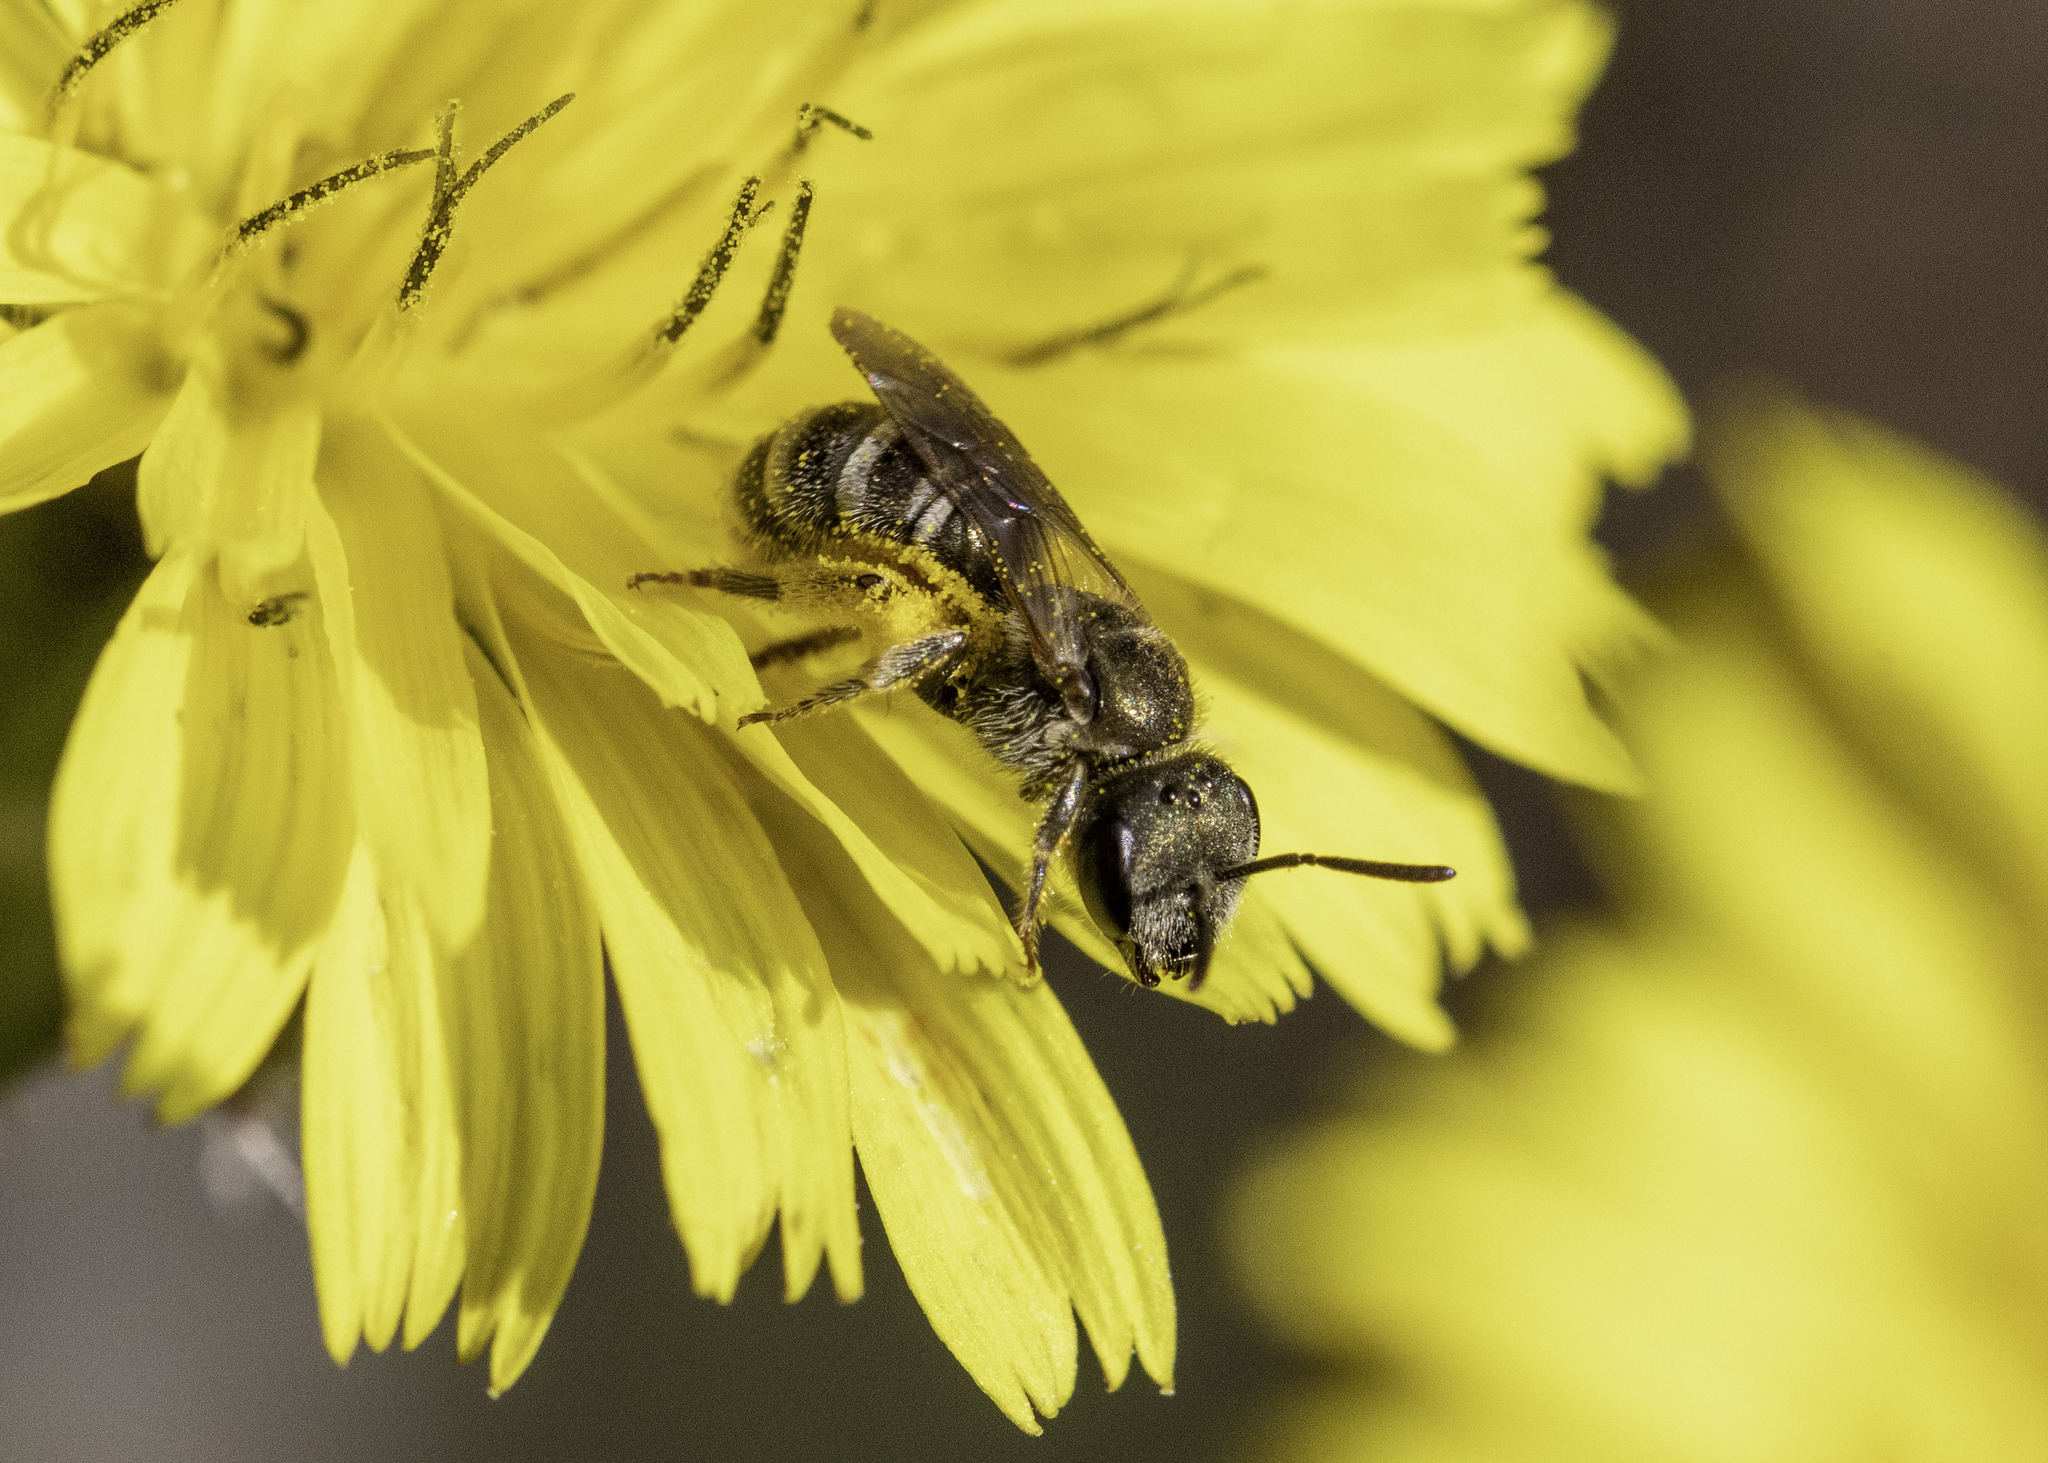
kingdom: Animalia
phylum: Arthropoda
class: Insecta
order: Hymenoptera
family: Halictidae
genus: Halictus
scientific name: Halictus tripartitus
